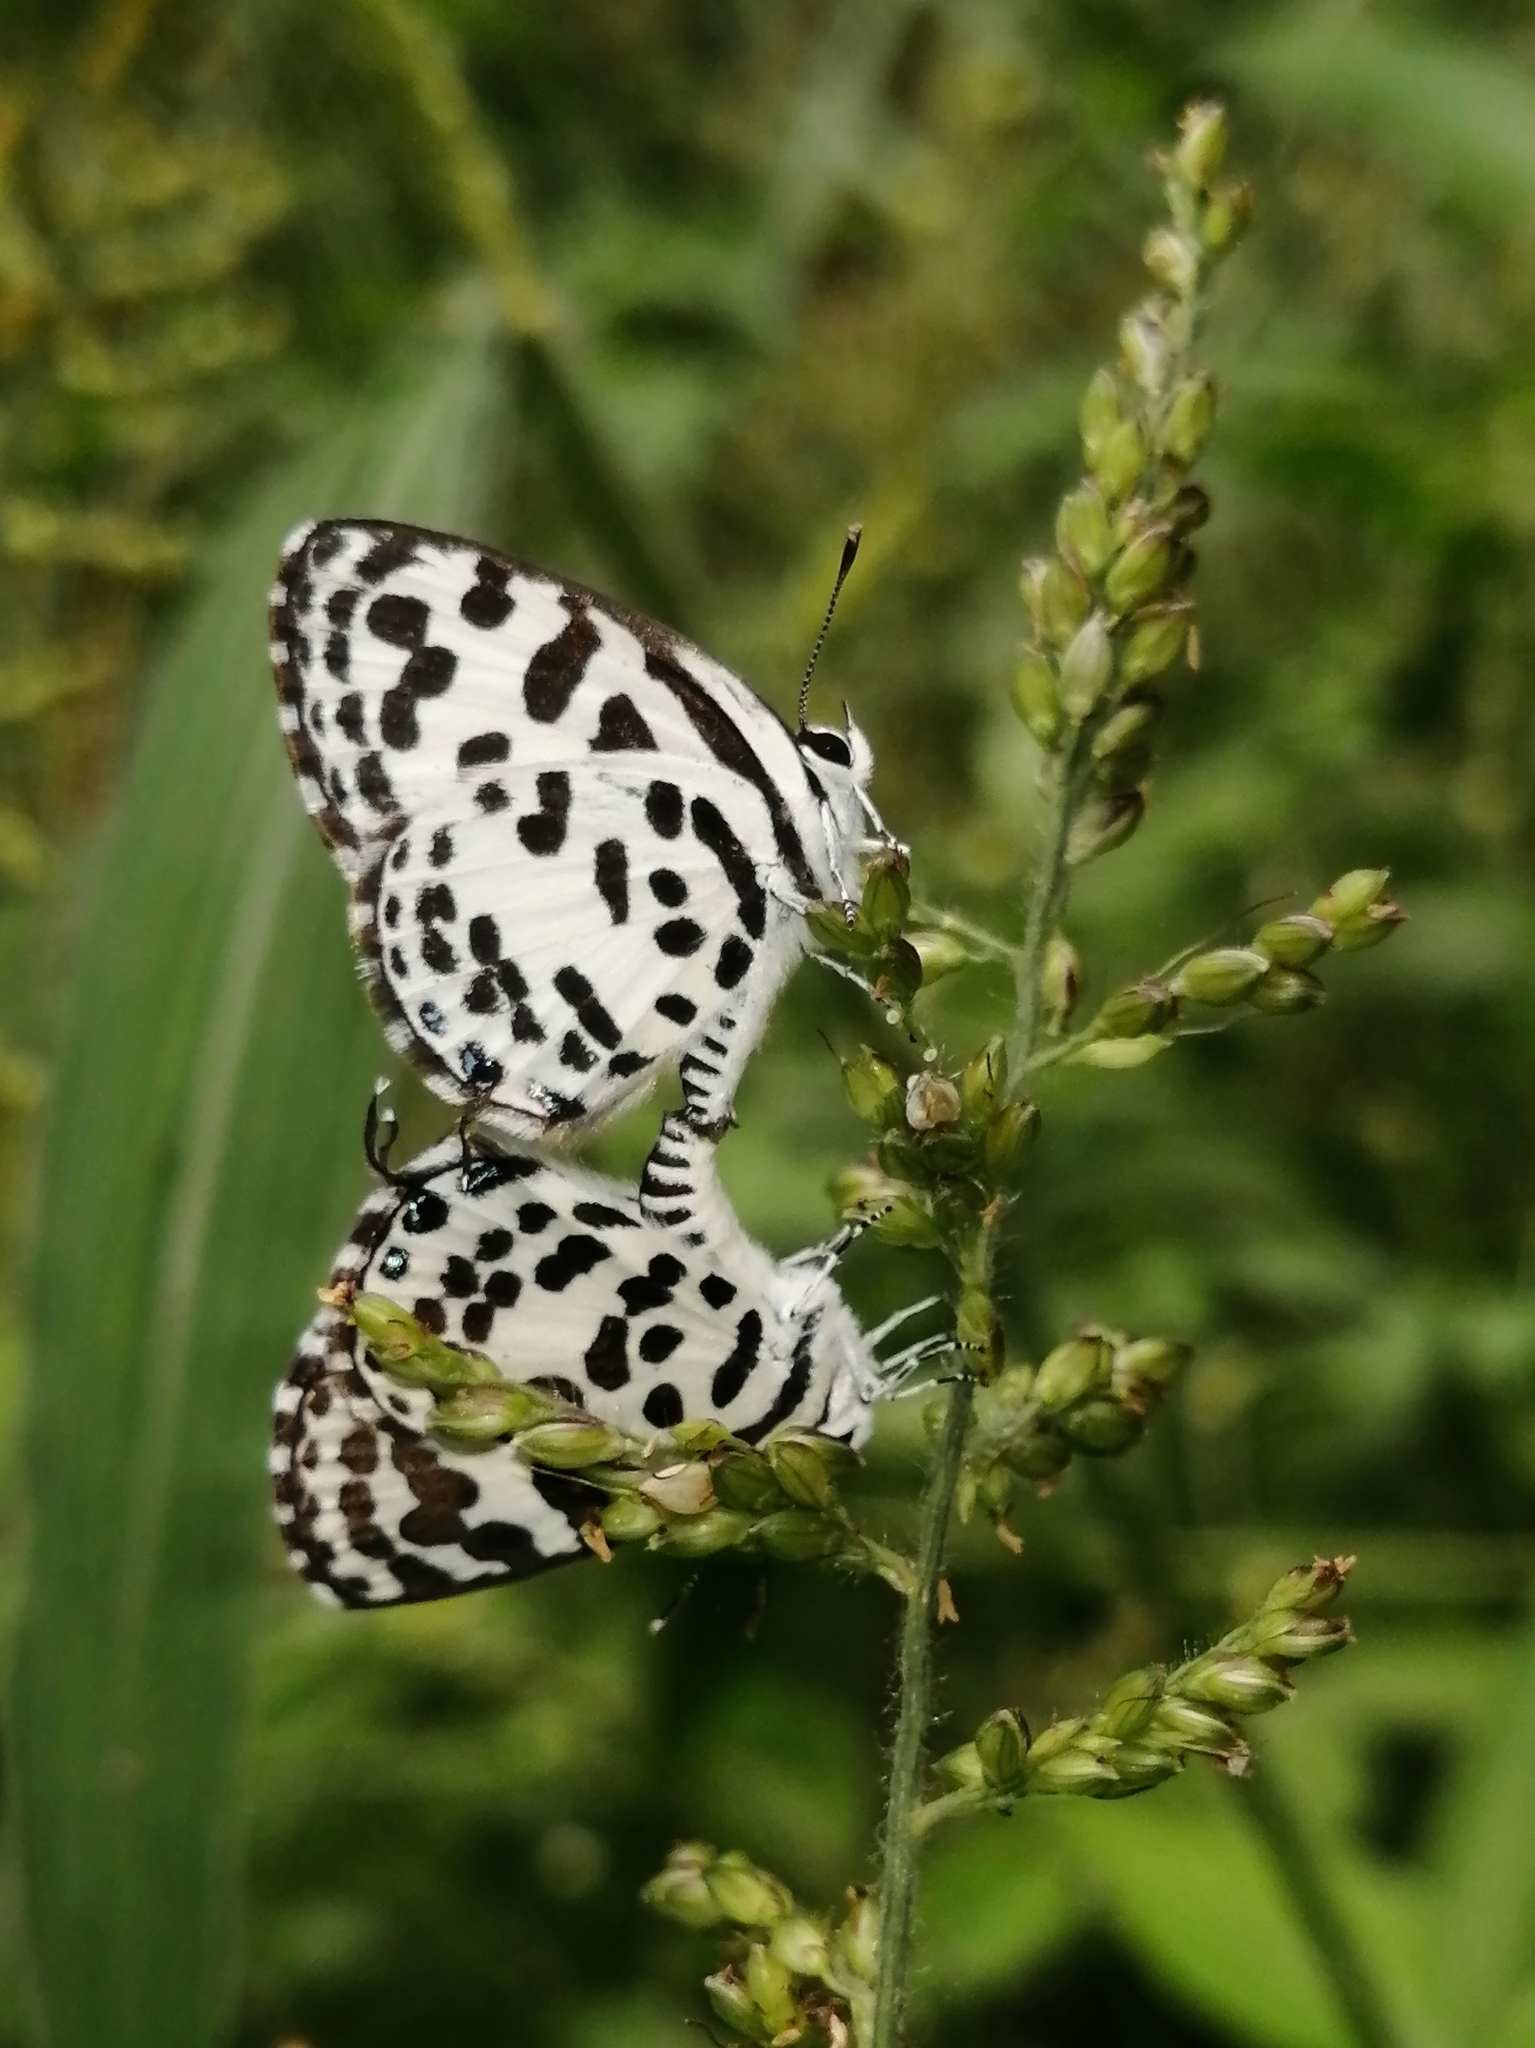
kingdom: Animalia
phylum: Arthropoda
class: Insecta
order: Lepidoptera
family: Lycaenidae
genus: Castalius
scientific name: Castalius rosimon
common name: Common pierrot
